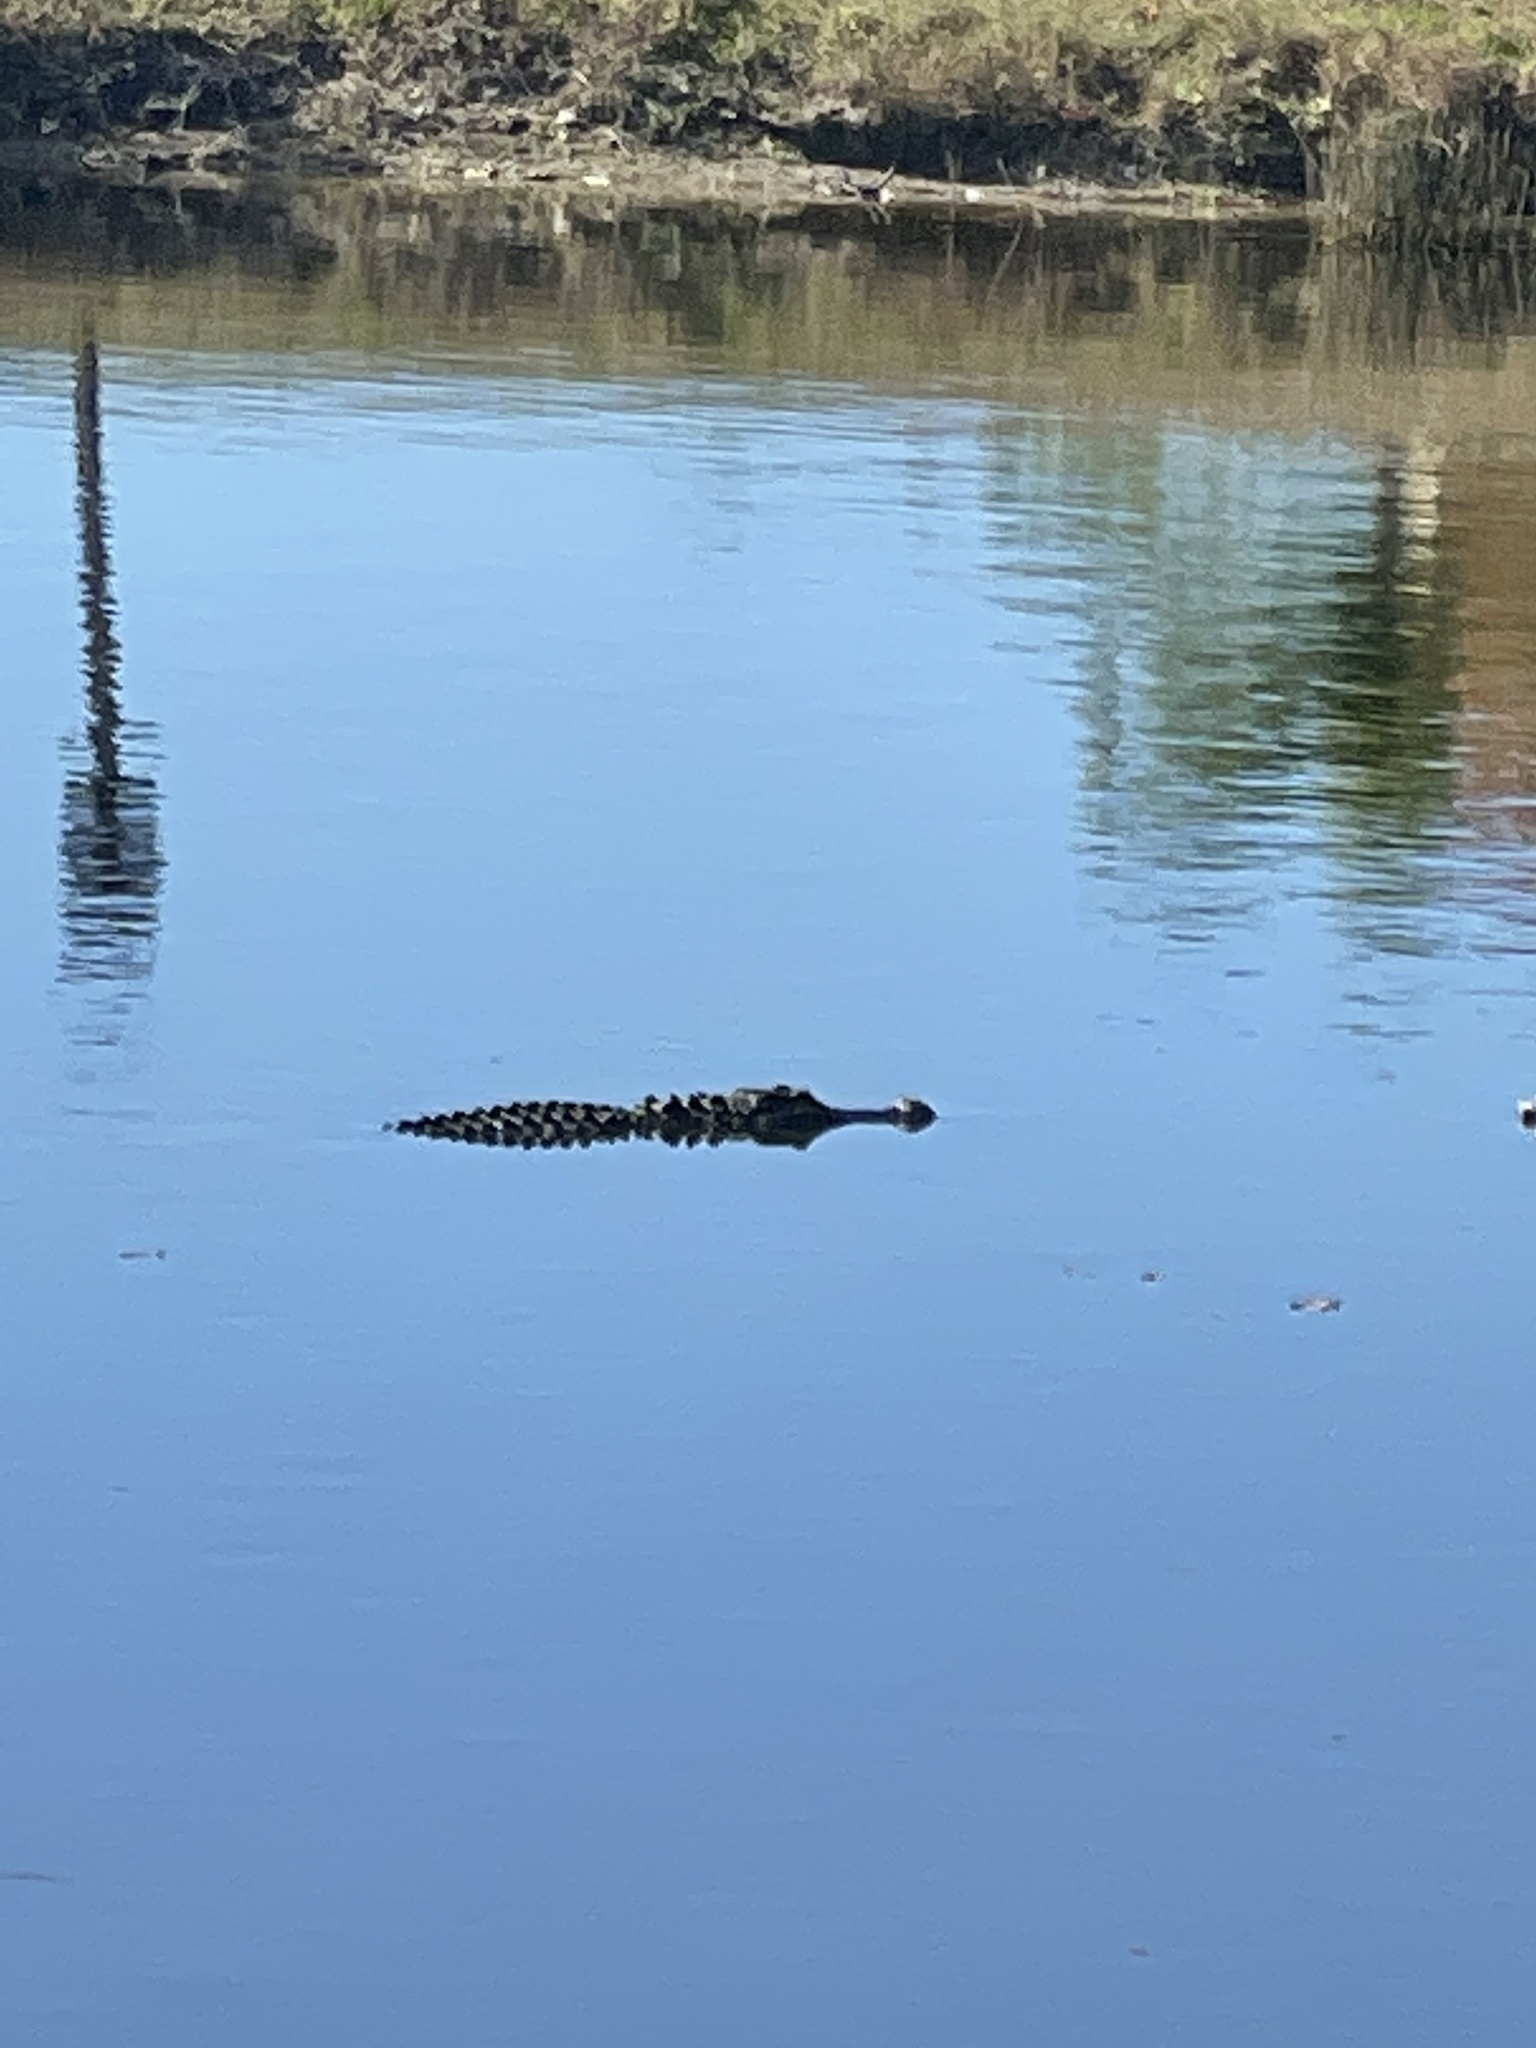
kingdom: Animalia
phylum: Chordata
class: Crocodylia
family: Alligatoridae
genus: Alligator
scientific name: Alligator mississippiensis
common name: American alligator
